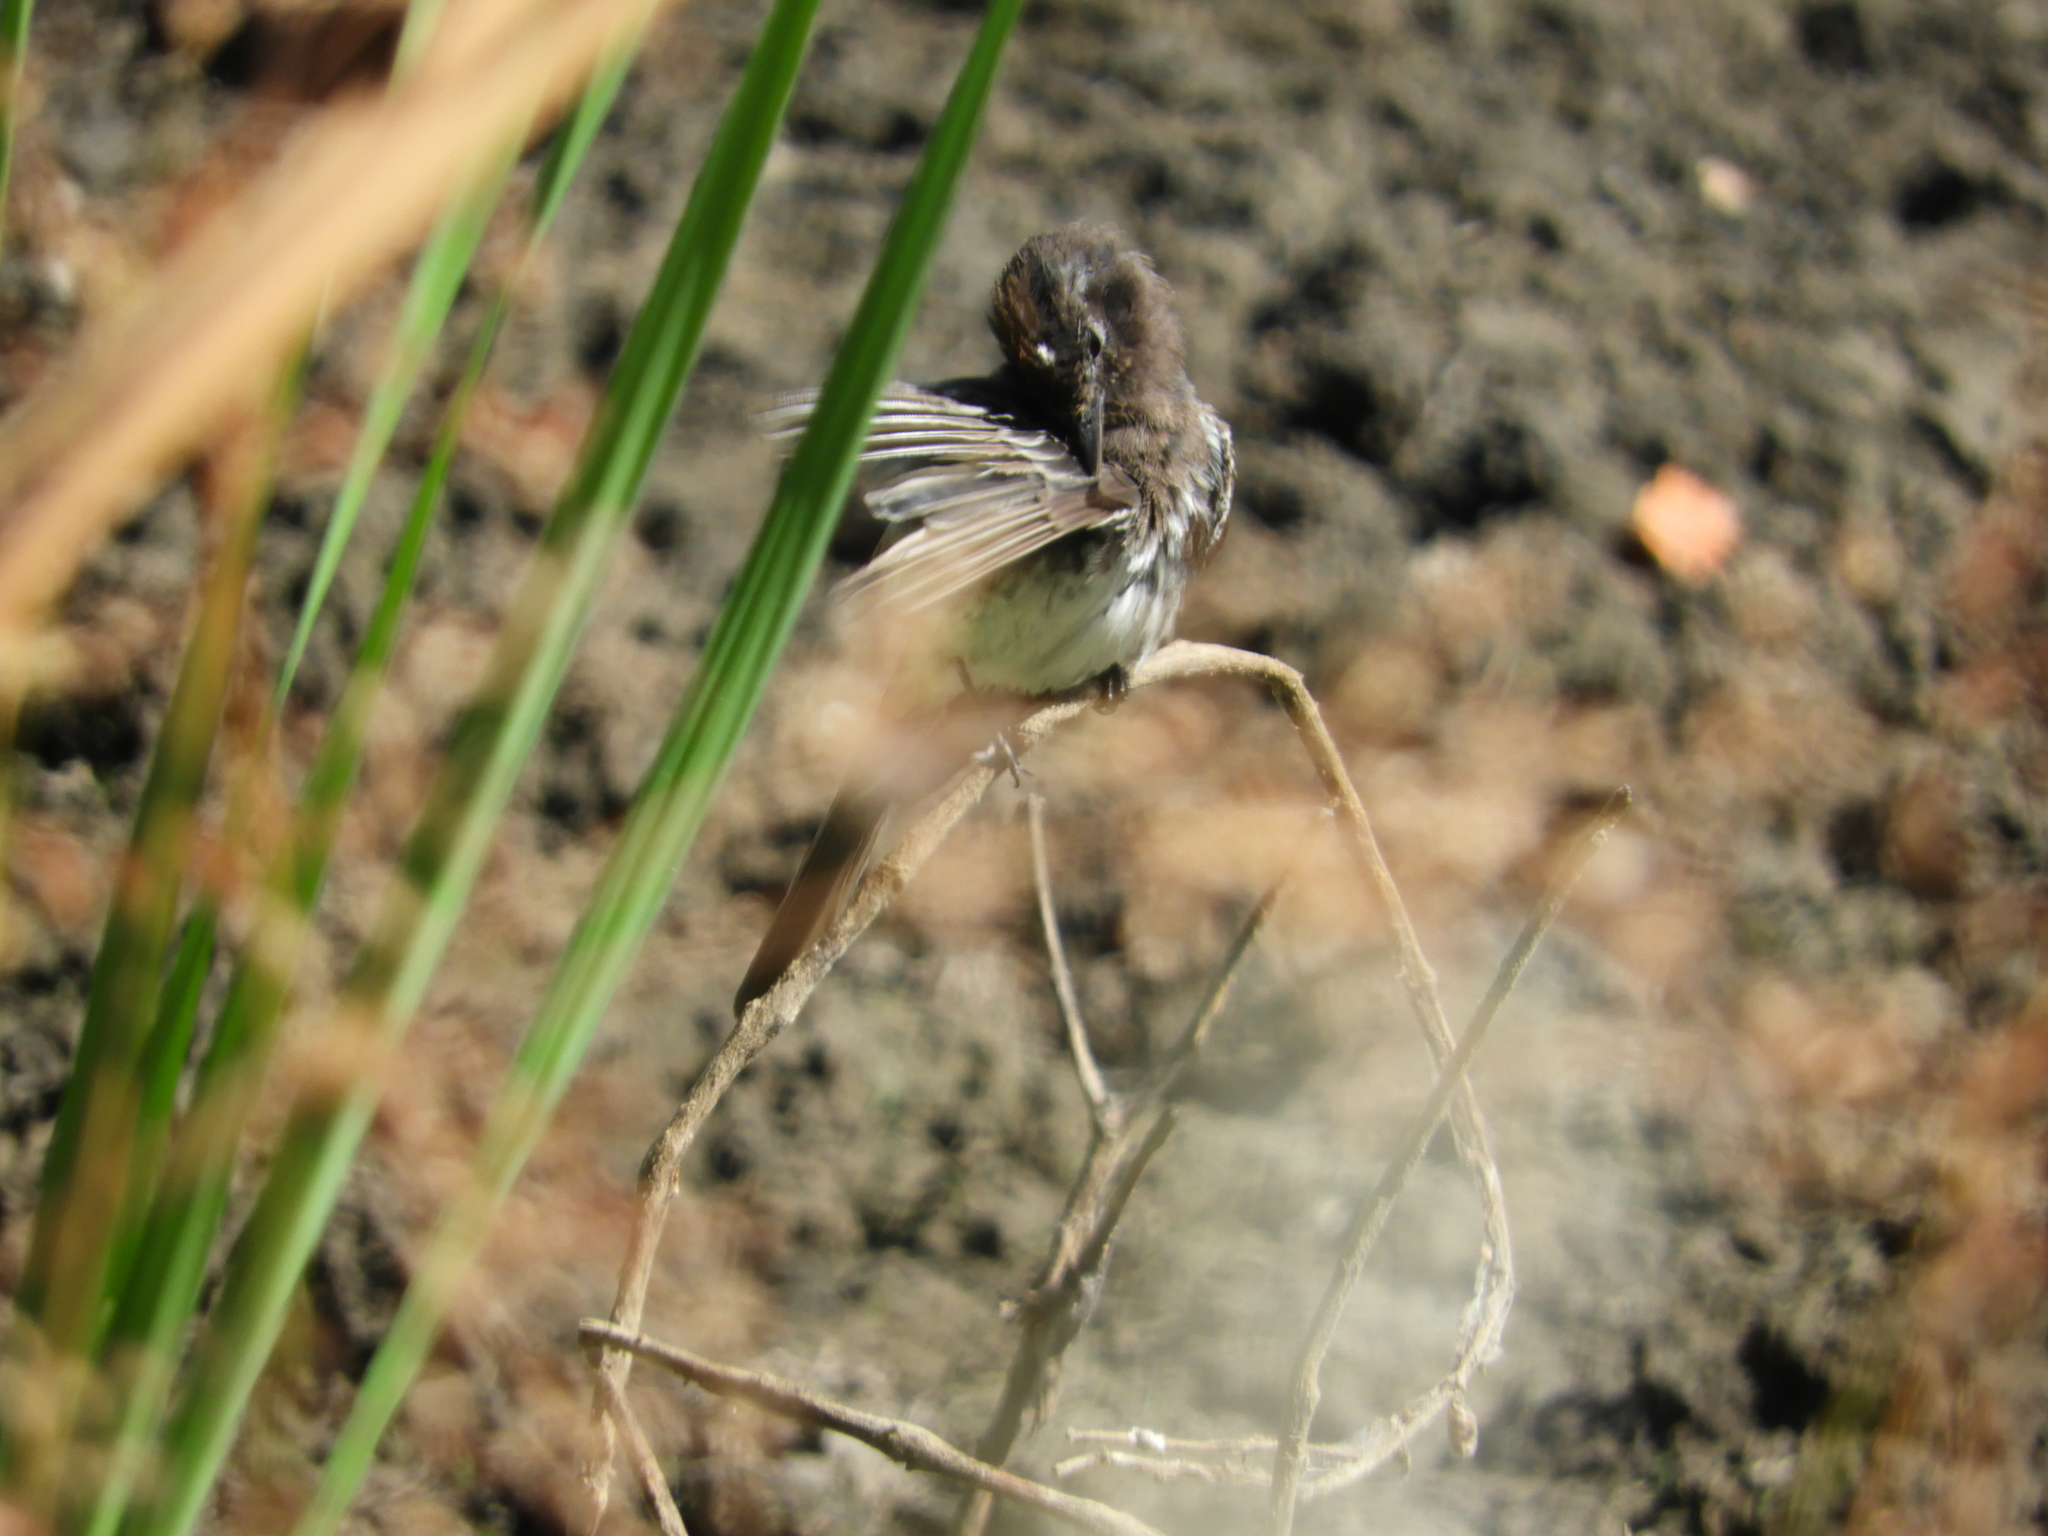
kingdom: Animalia
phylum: Chordata
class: Aves
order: Passeriformes
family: Tyrannidae
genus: Sayornis
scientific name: Sayornis nigricans
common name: Black phoebe
